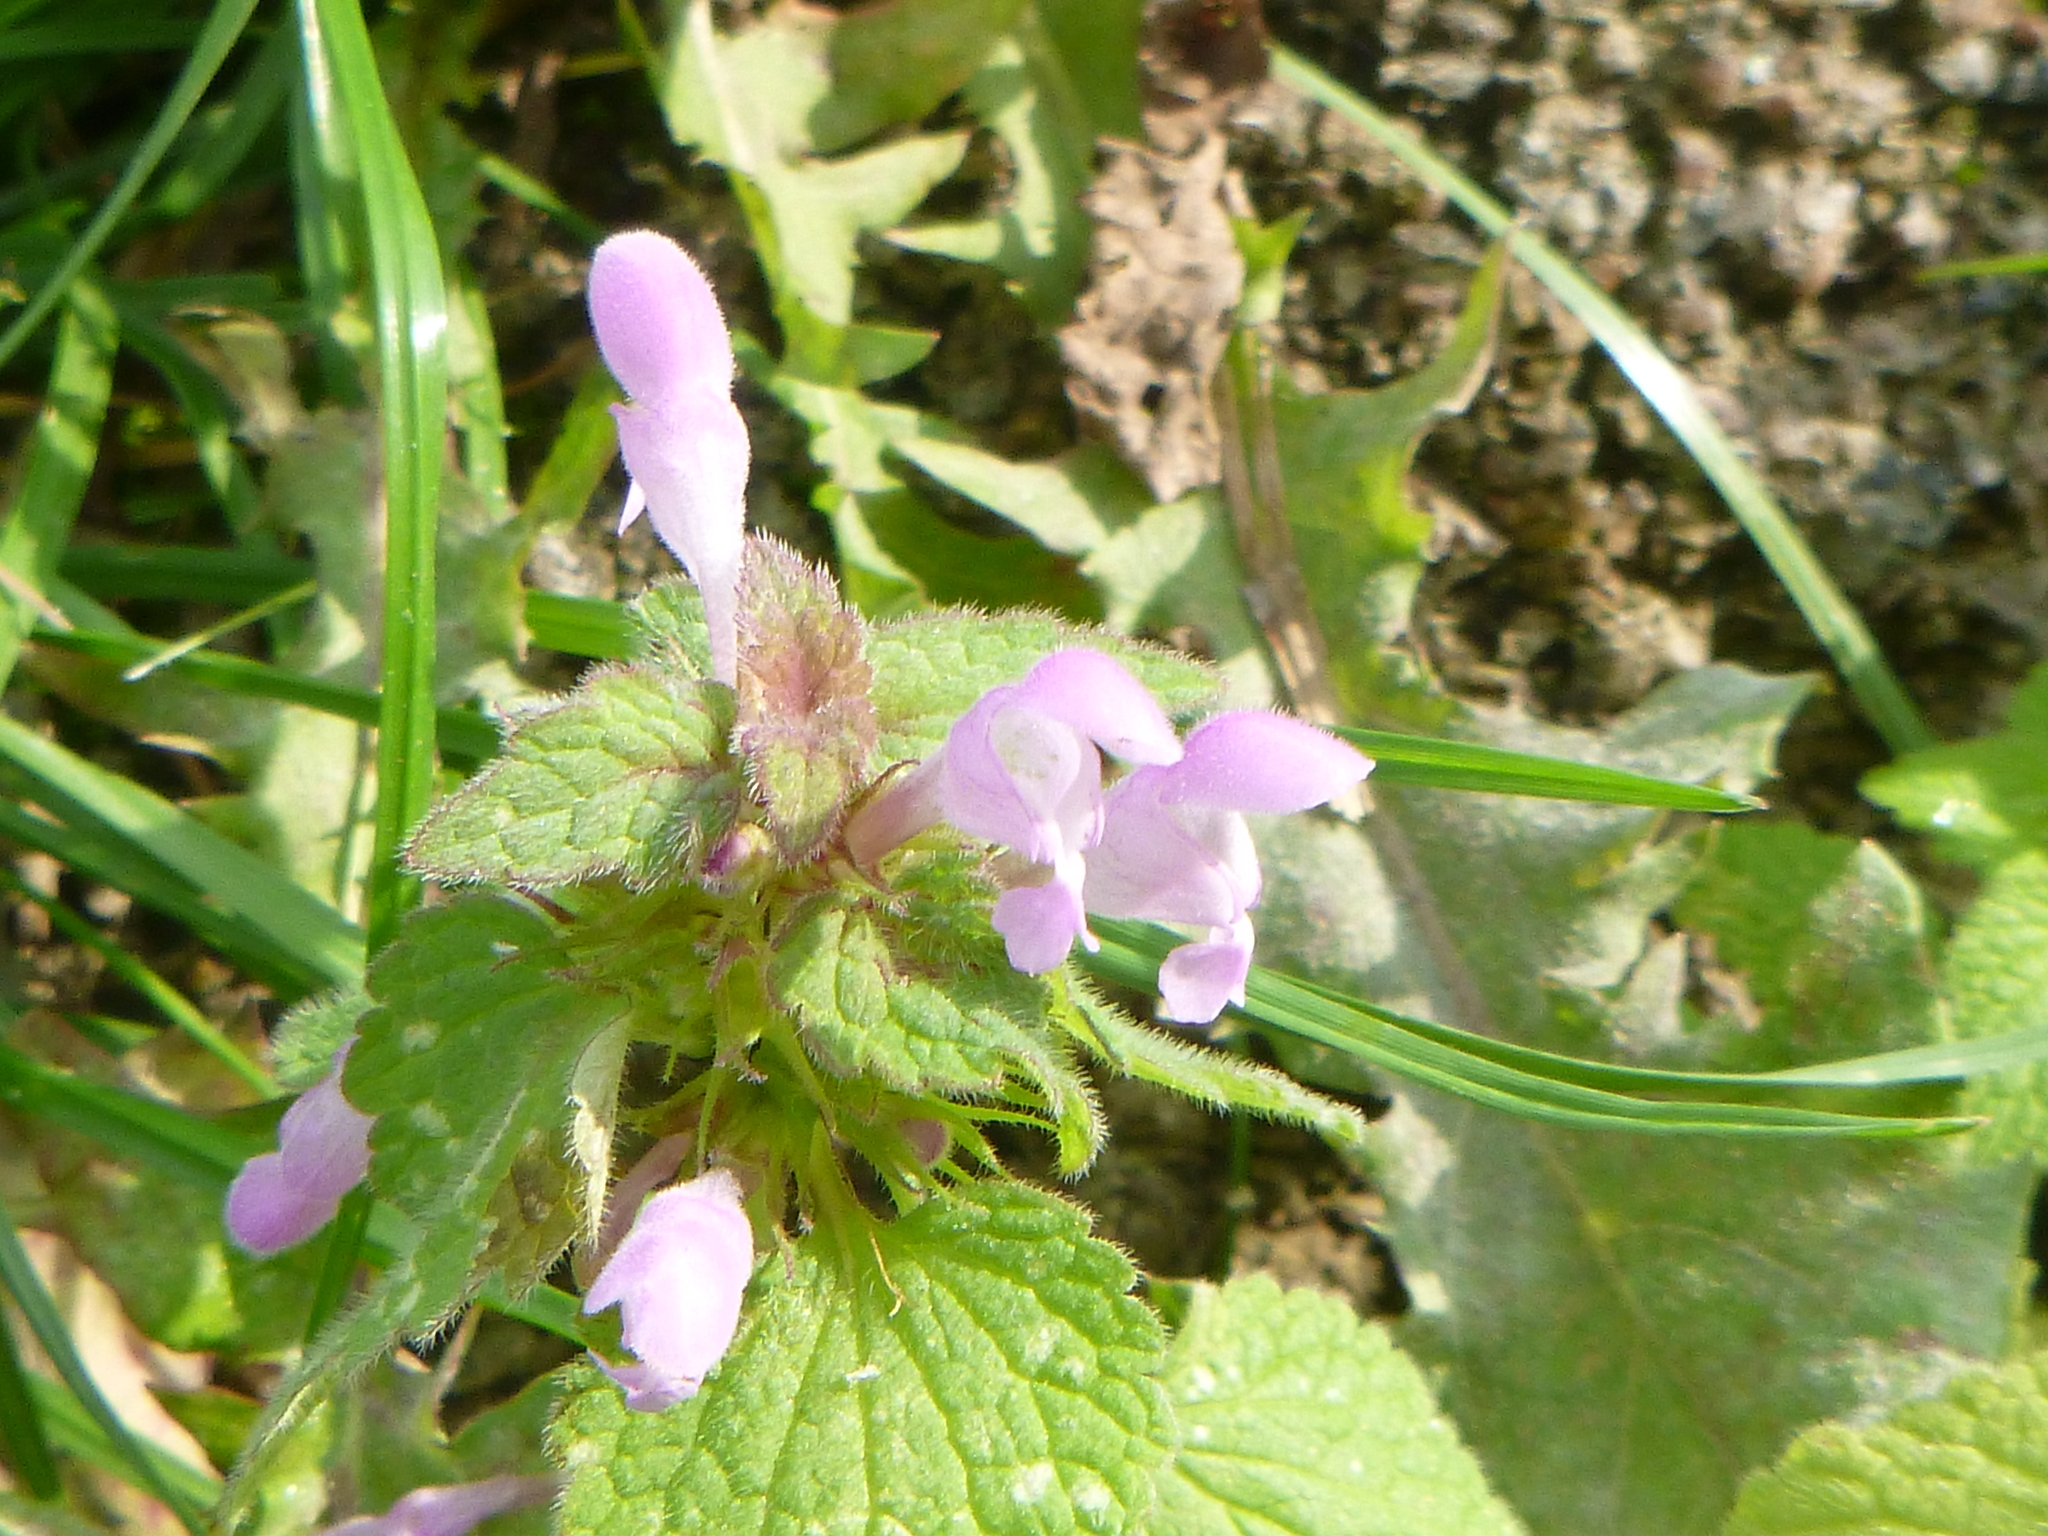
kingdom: Plantae
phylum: Tracheophyta
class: Magnoliopsida
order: Lamiales
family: Lamiaceae
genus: Lamium
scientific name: Lamium purpureum
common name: Red dead-nettle
